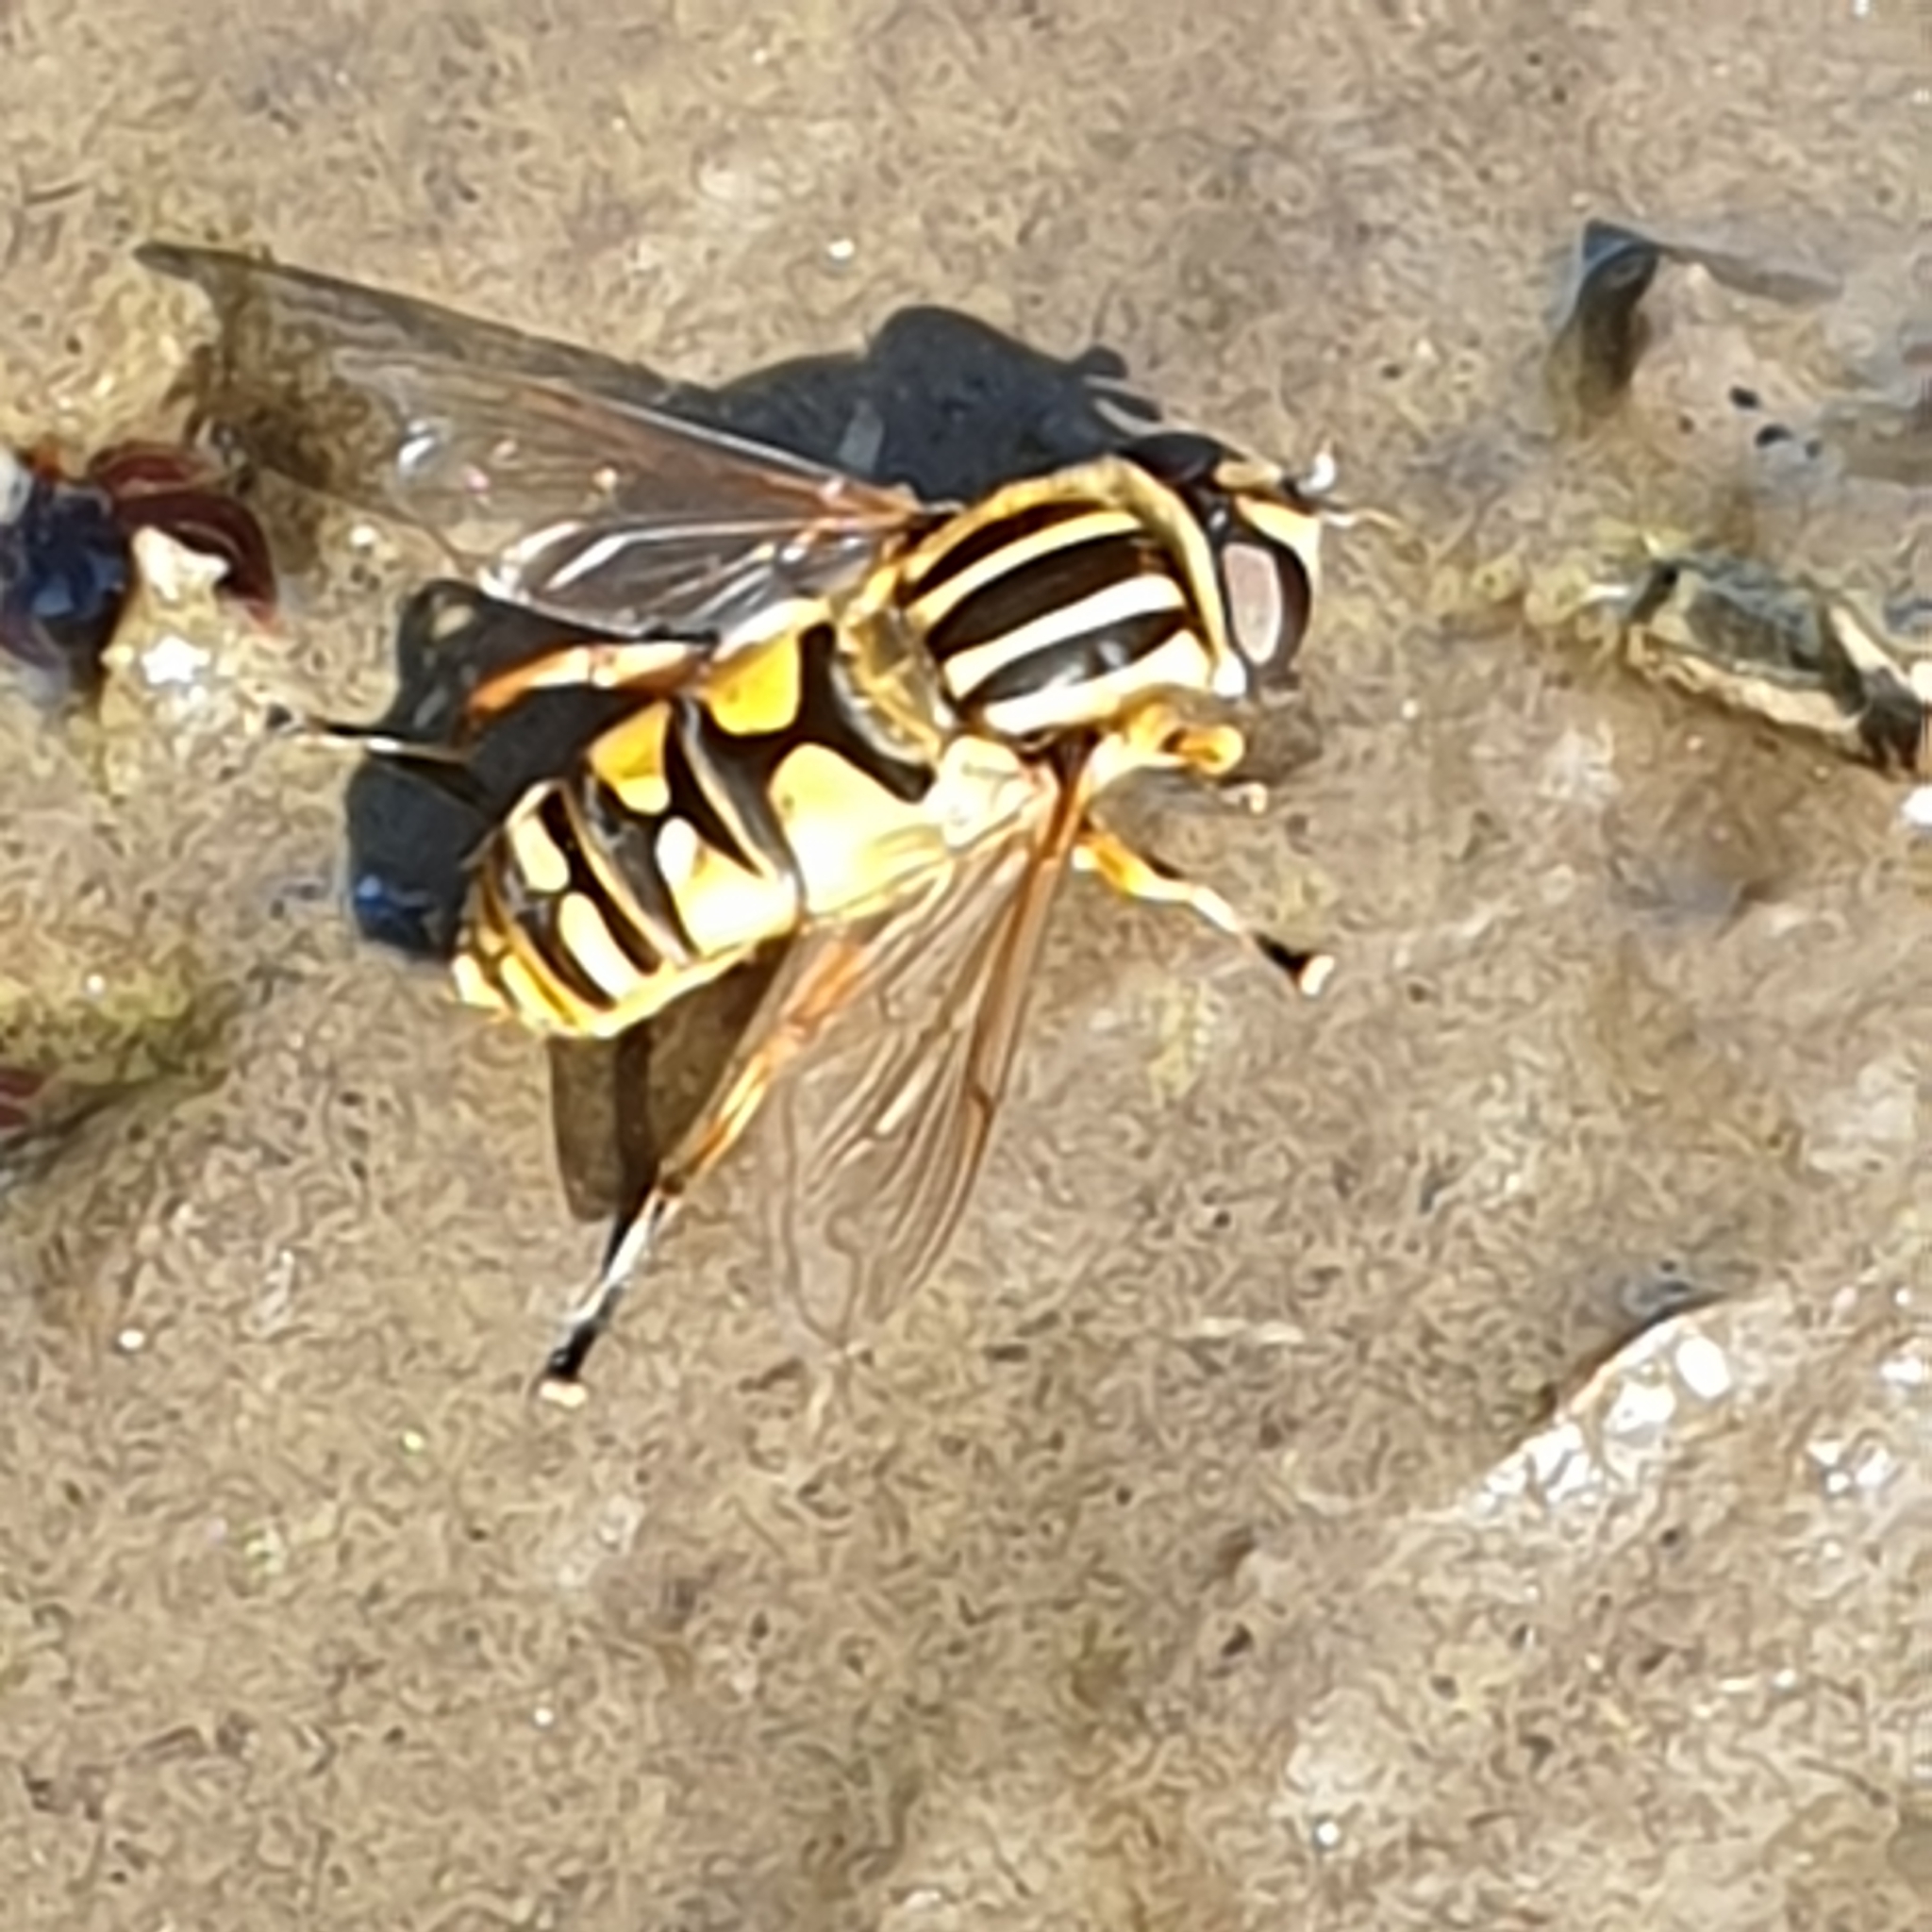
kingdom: Animalia
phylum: Arthropoda
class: Insecta
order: Diptera
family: Syrphidae
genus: Helophilus
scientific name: Helophilus pendulus
